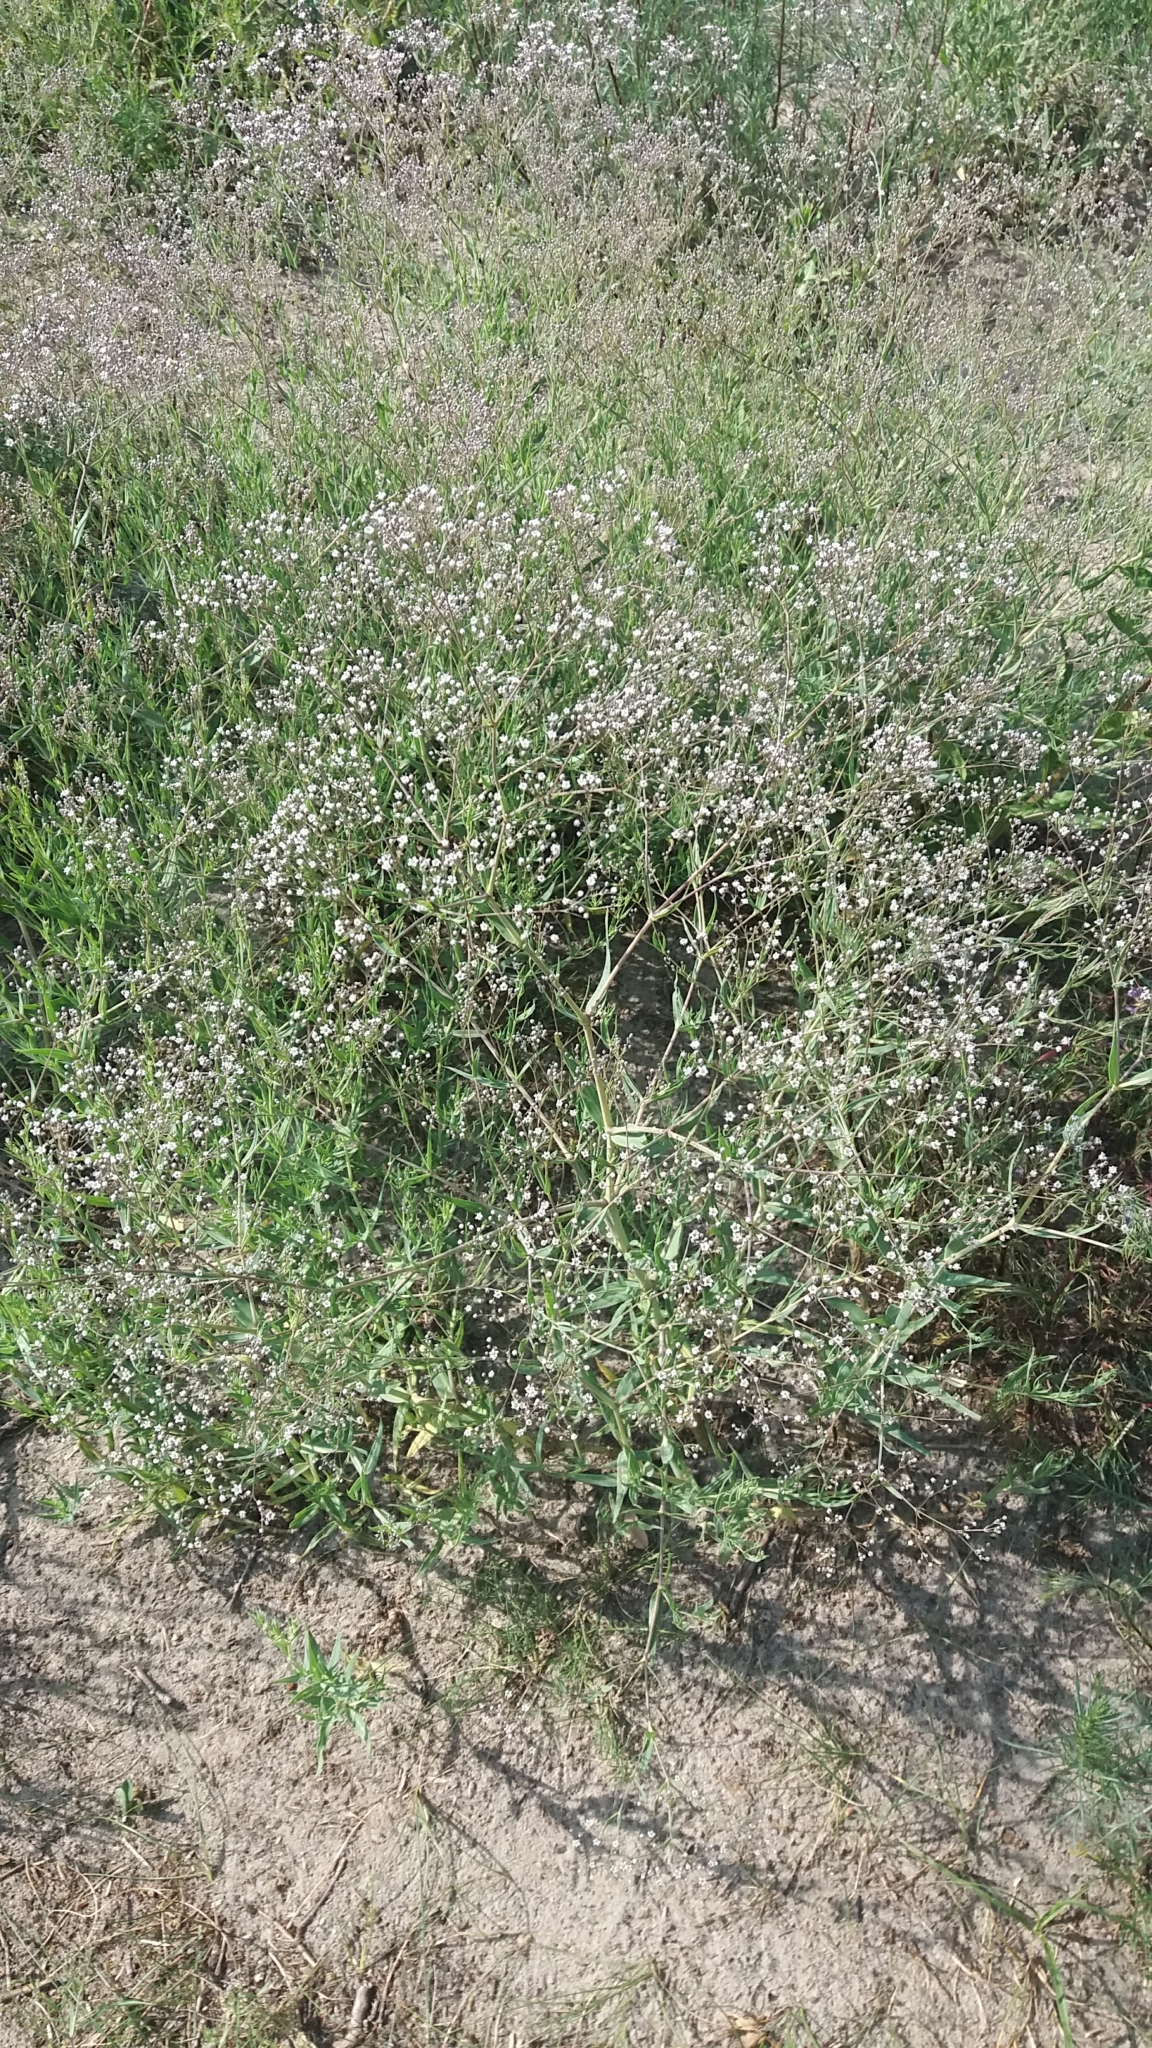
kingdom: Plantae
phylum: Tracheophyta
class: Magnoliopsida
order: Caryophyllales
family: Caryophyllaceae
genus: Gypsophila
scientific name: Gypsophila paniculata
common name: Baby's-breath
